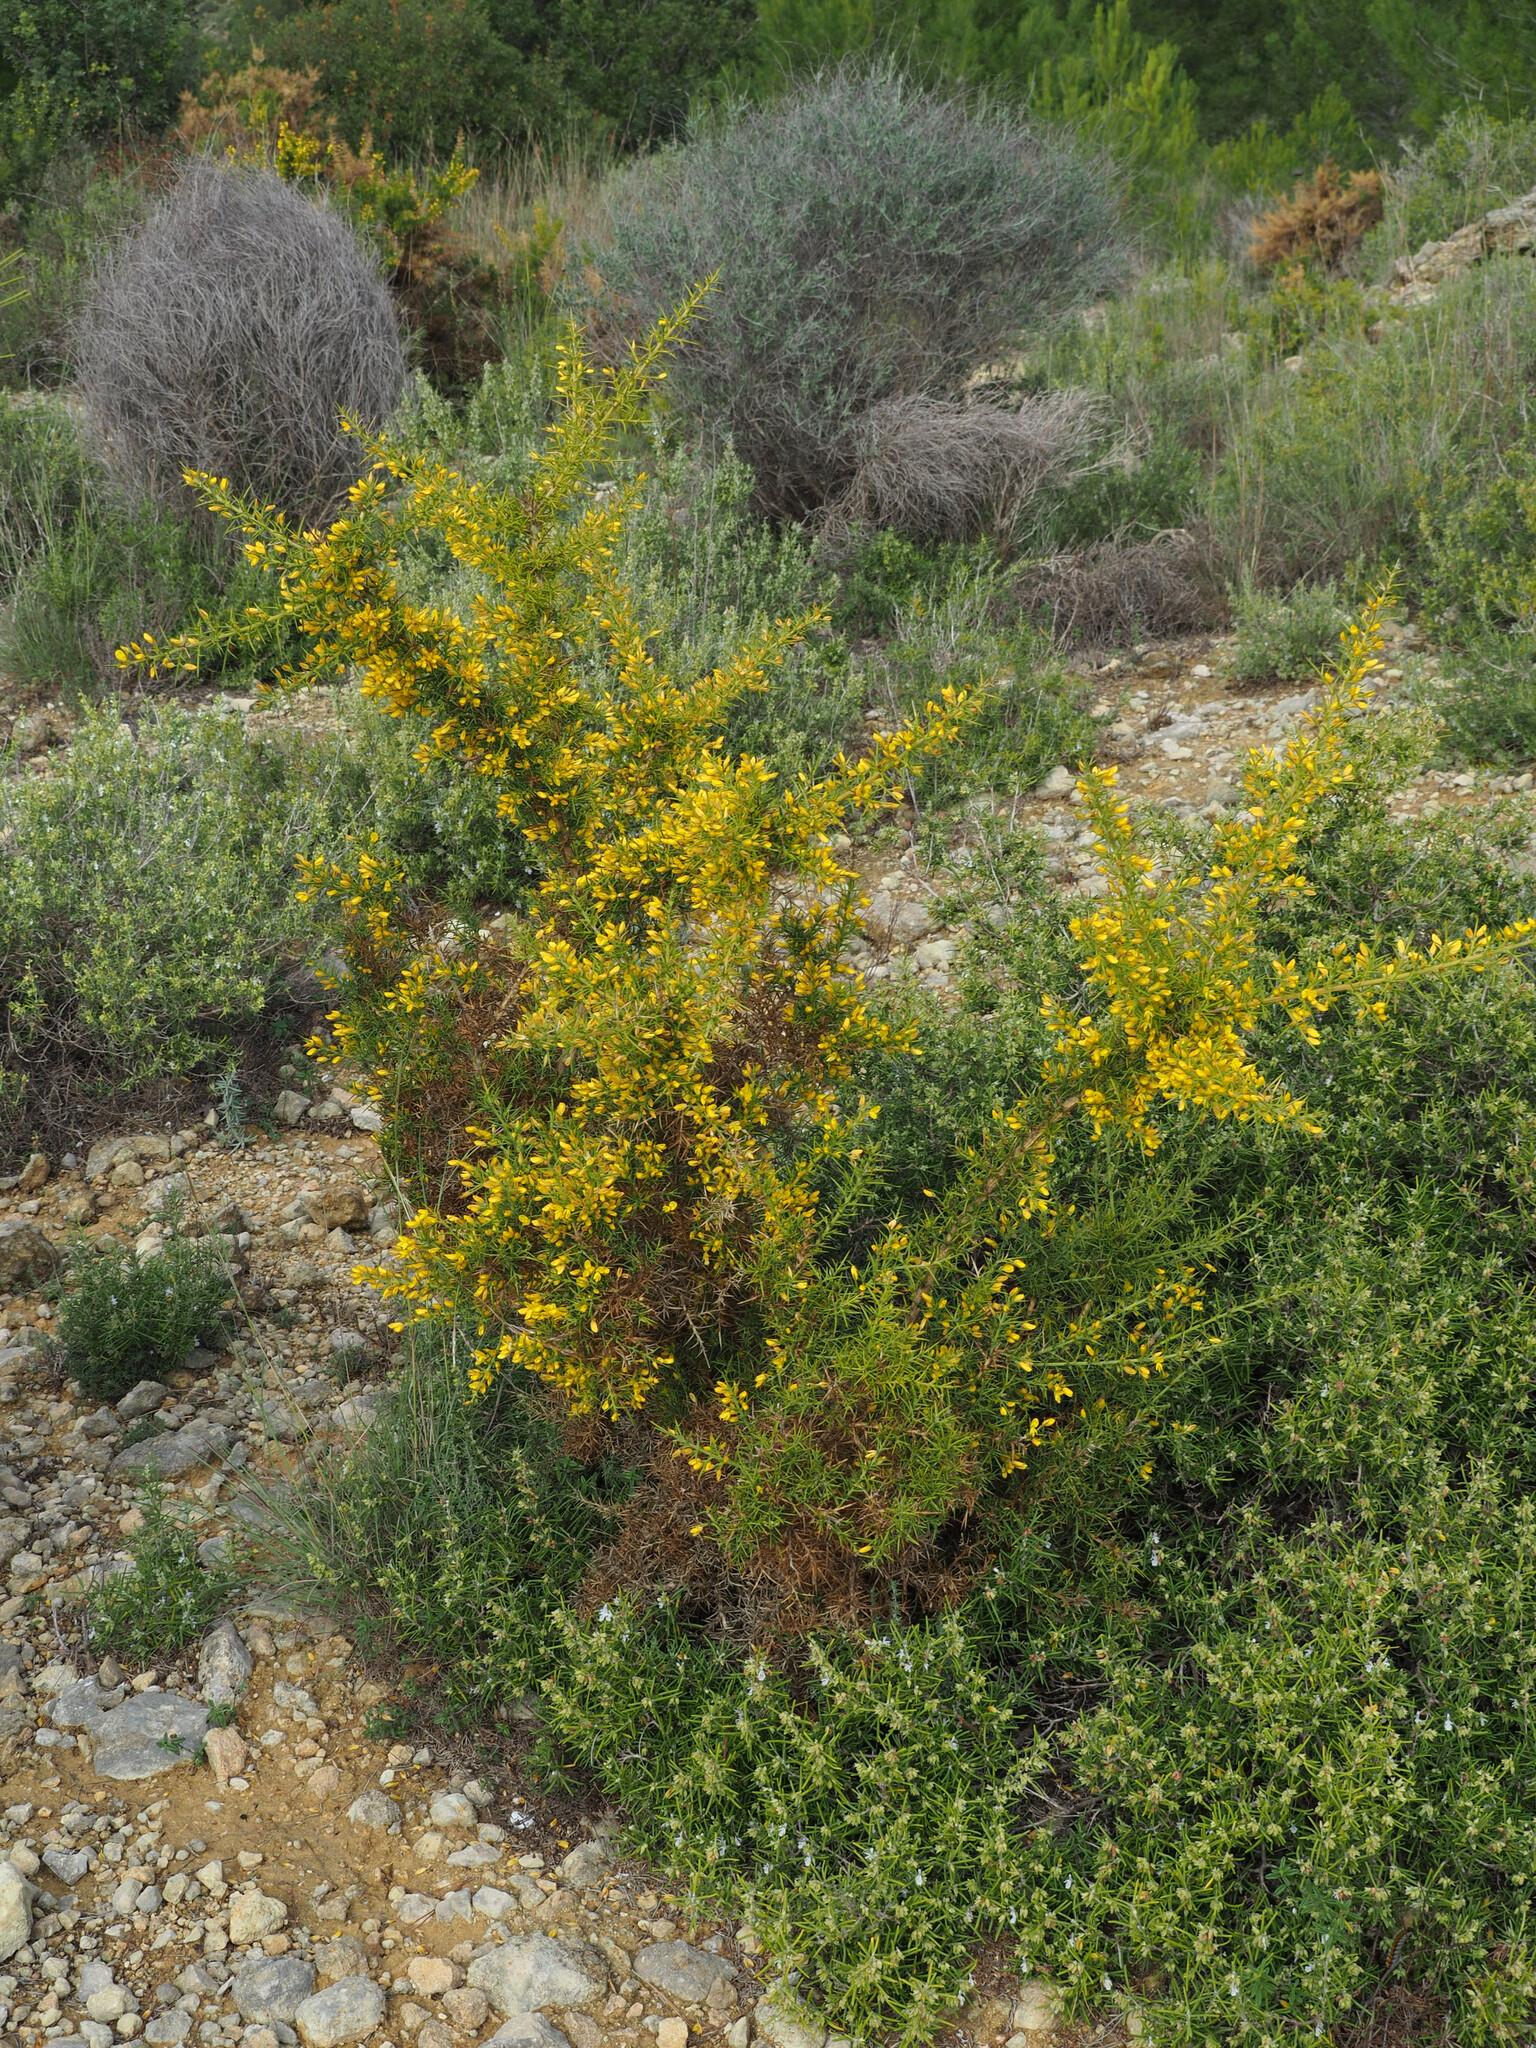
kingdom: Plantae
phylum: Tracheophyta
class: Magnoliopsida
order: Fabales
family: Fabaceae
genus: Ulex
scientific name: Ulex parviflorus
